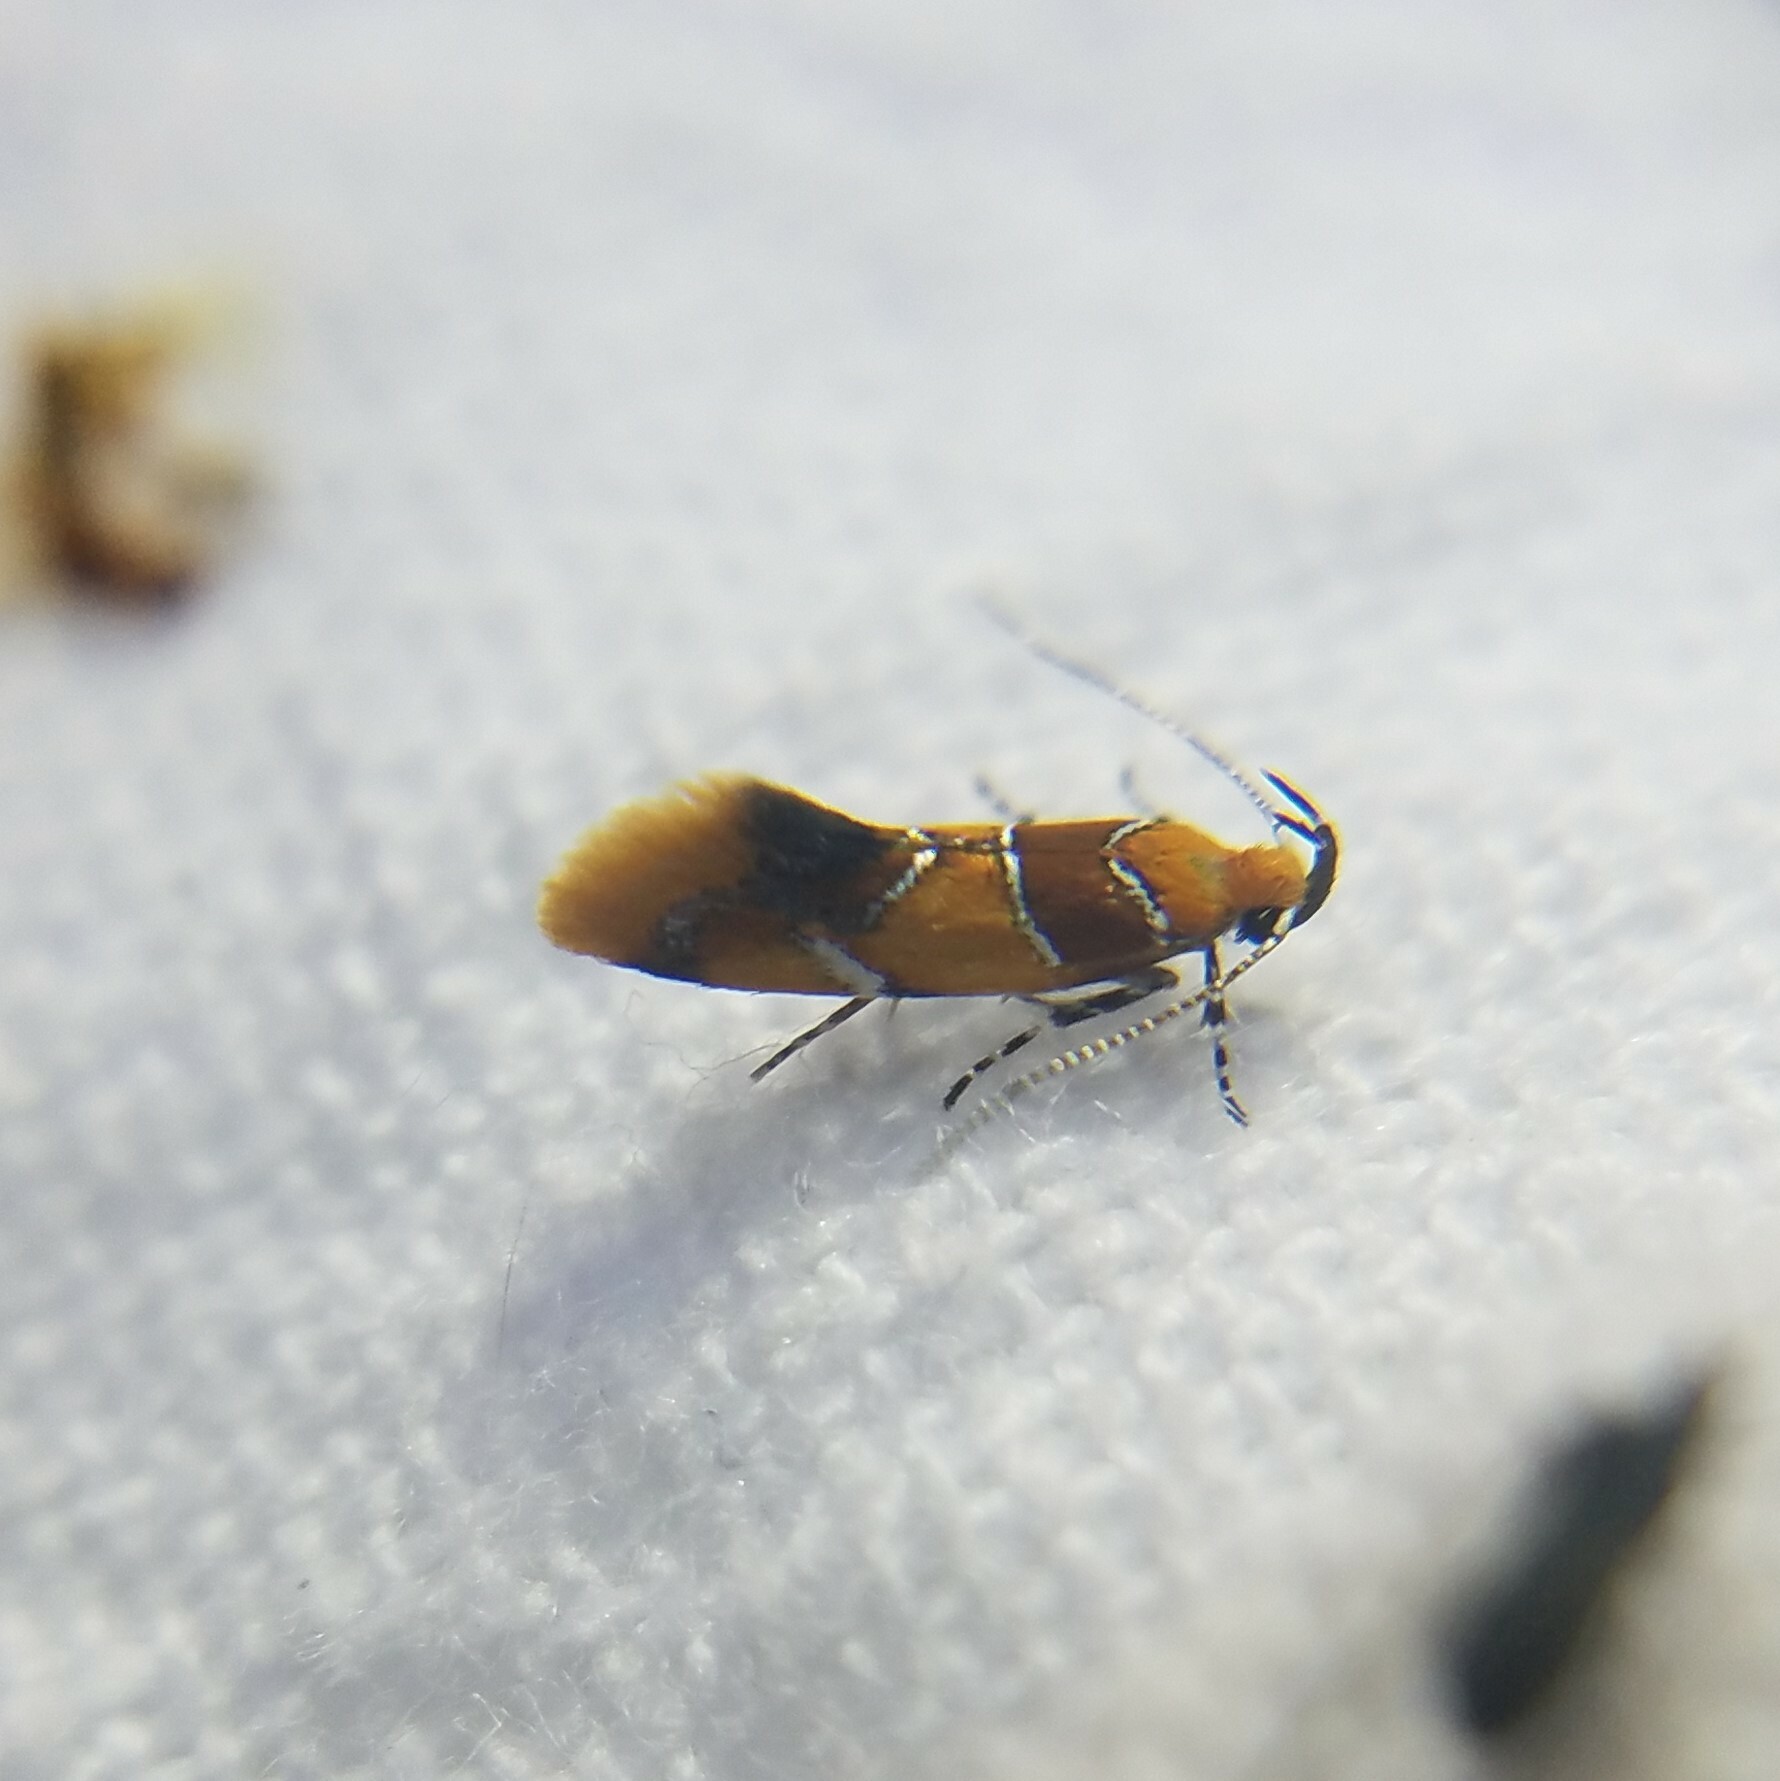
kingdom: Animalia
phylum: Arthropoda
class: Insecta
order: Lepidoptera
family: Oecophoridae
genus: Callima
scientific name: Callima argenticinctella
